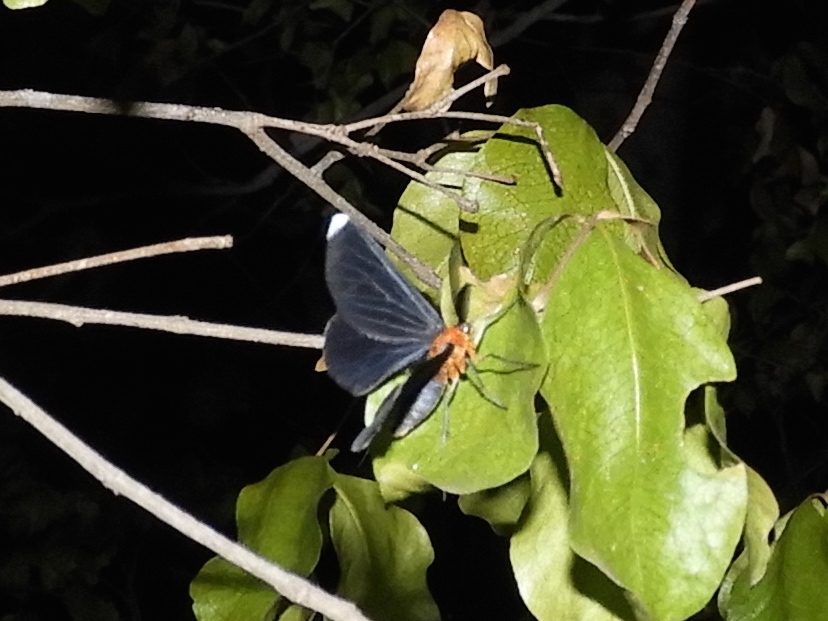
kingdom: Animalia
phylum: Arthropoda
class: Insecta
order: Lepidoptera
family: Geometridae
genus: Melanchroia
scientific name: Melanchroia chephise
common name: White-tipped black
